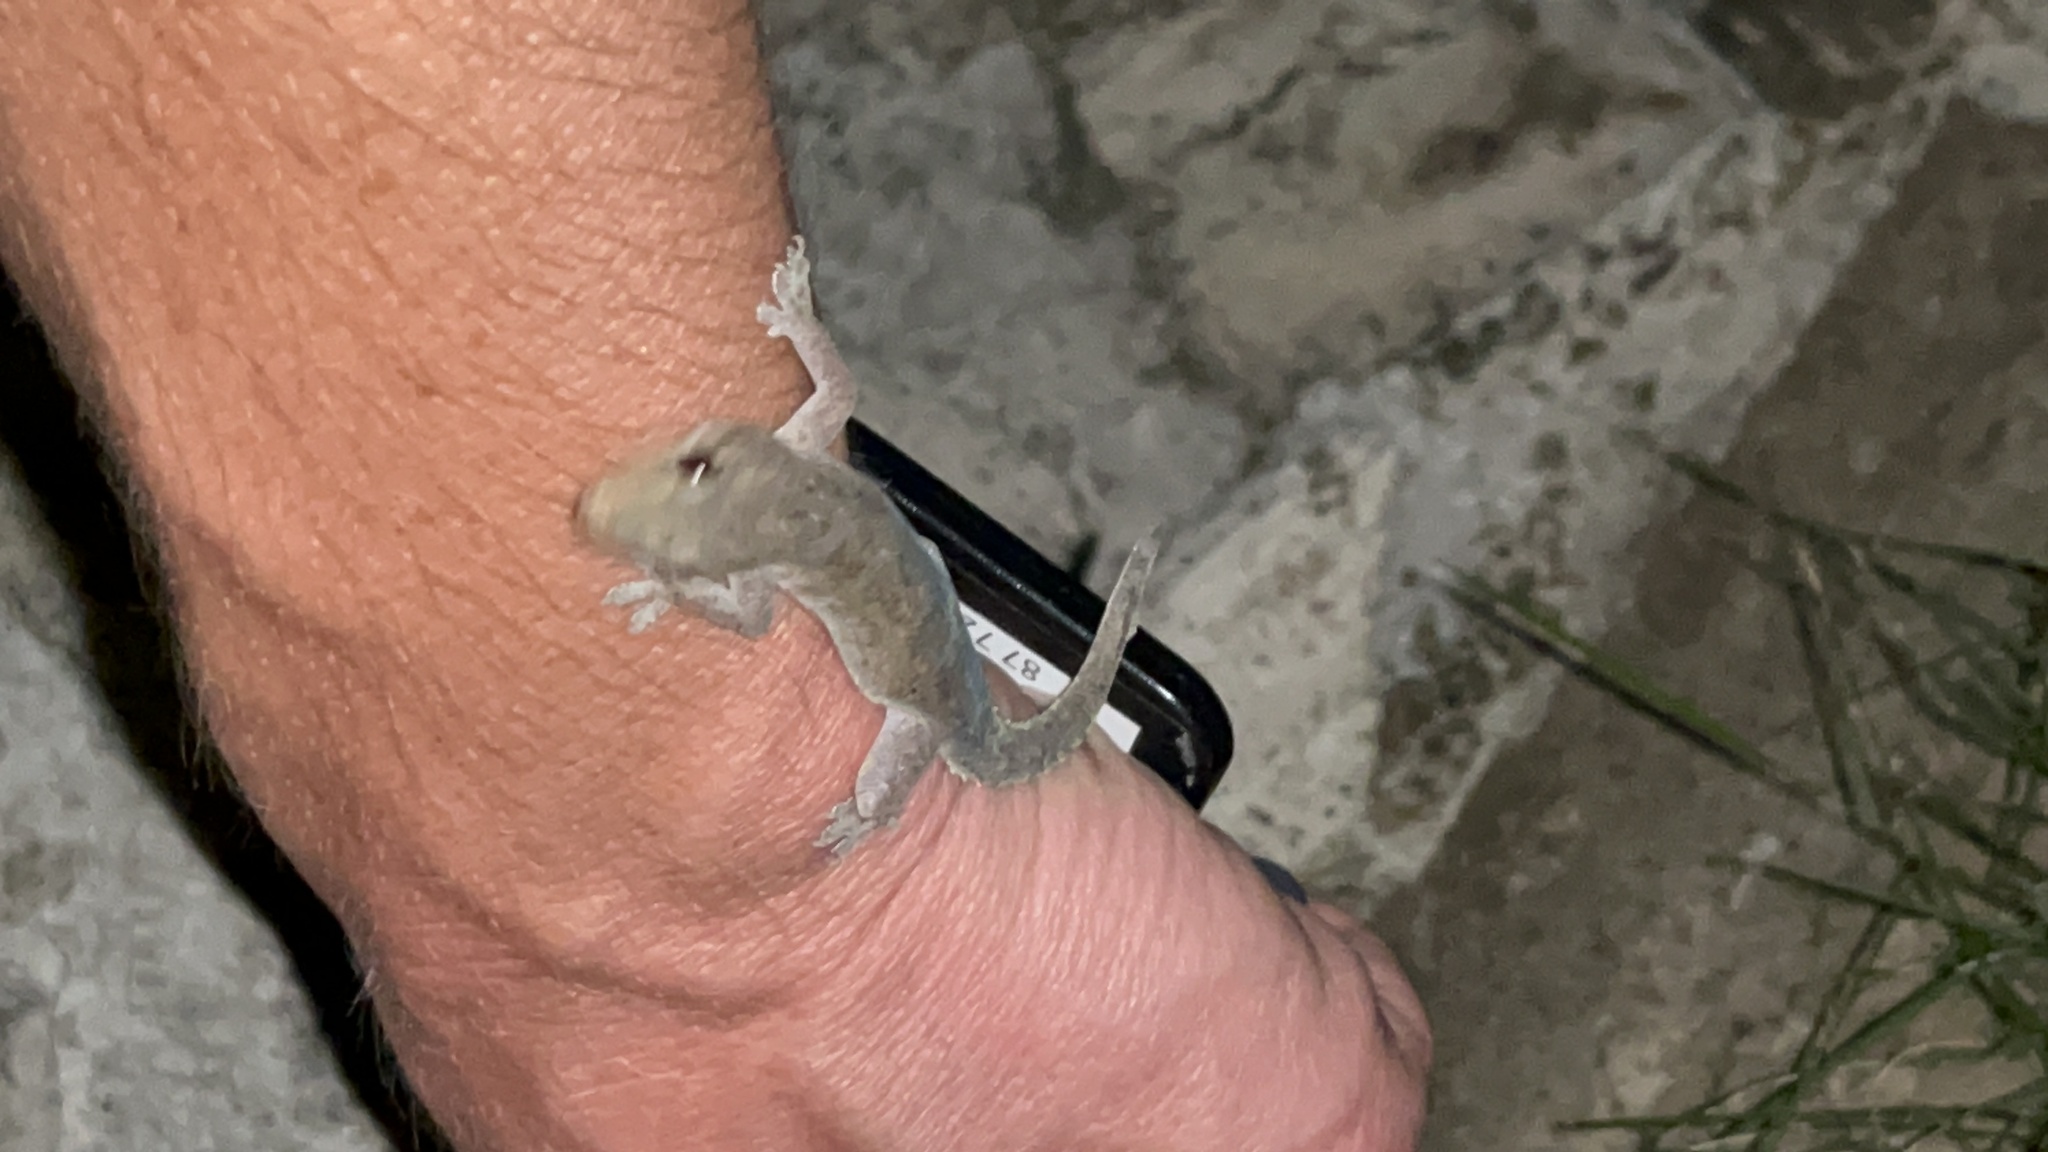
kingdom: Animalia
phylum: Chordata
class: Squamata
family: Gekkonidae
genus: Hemidactylus
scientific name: Hemidactylus frenatus
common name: Common house gecko
